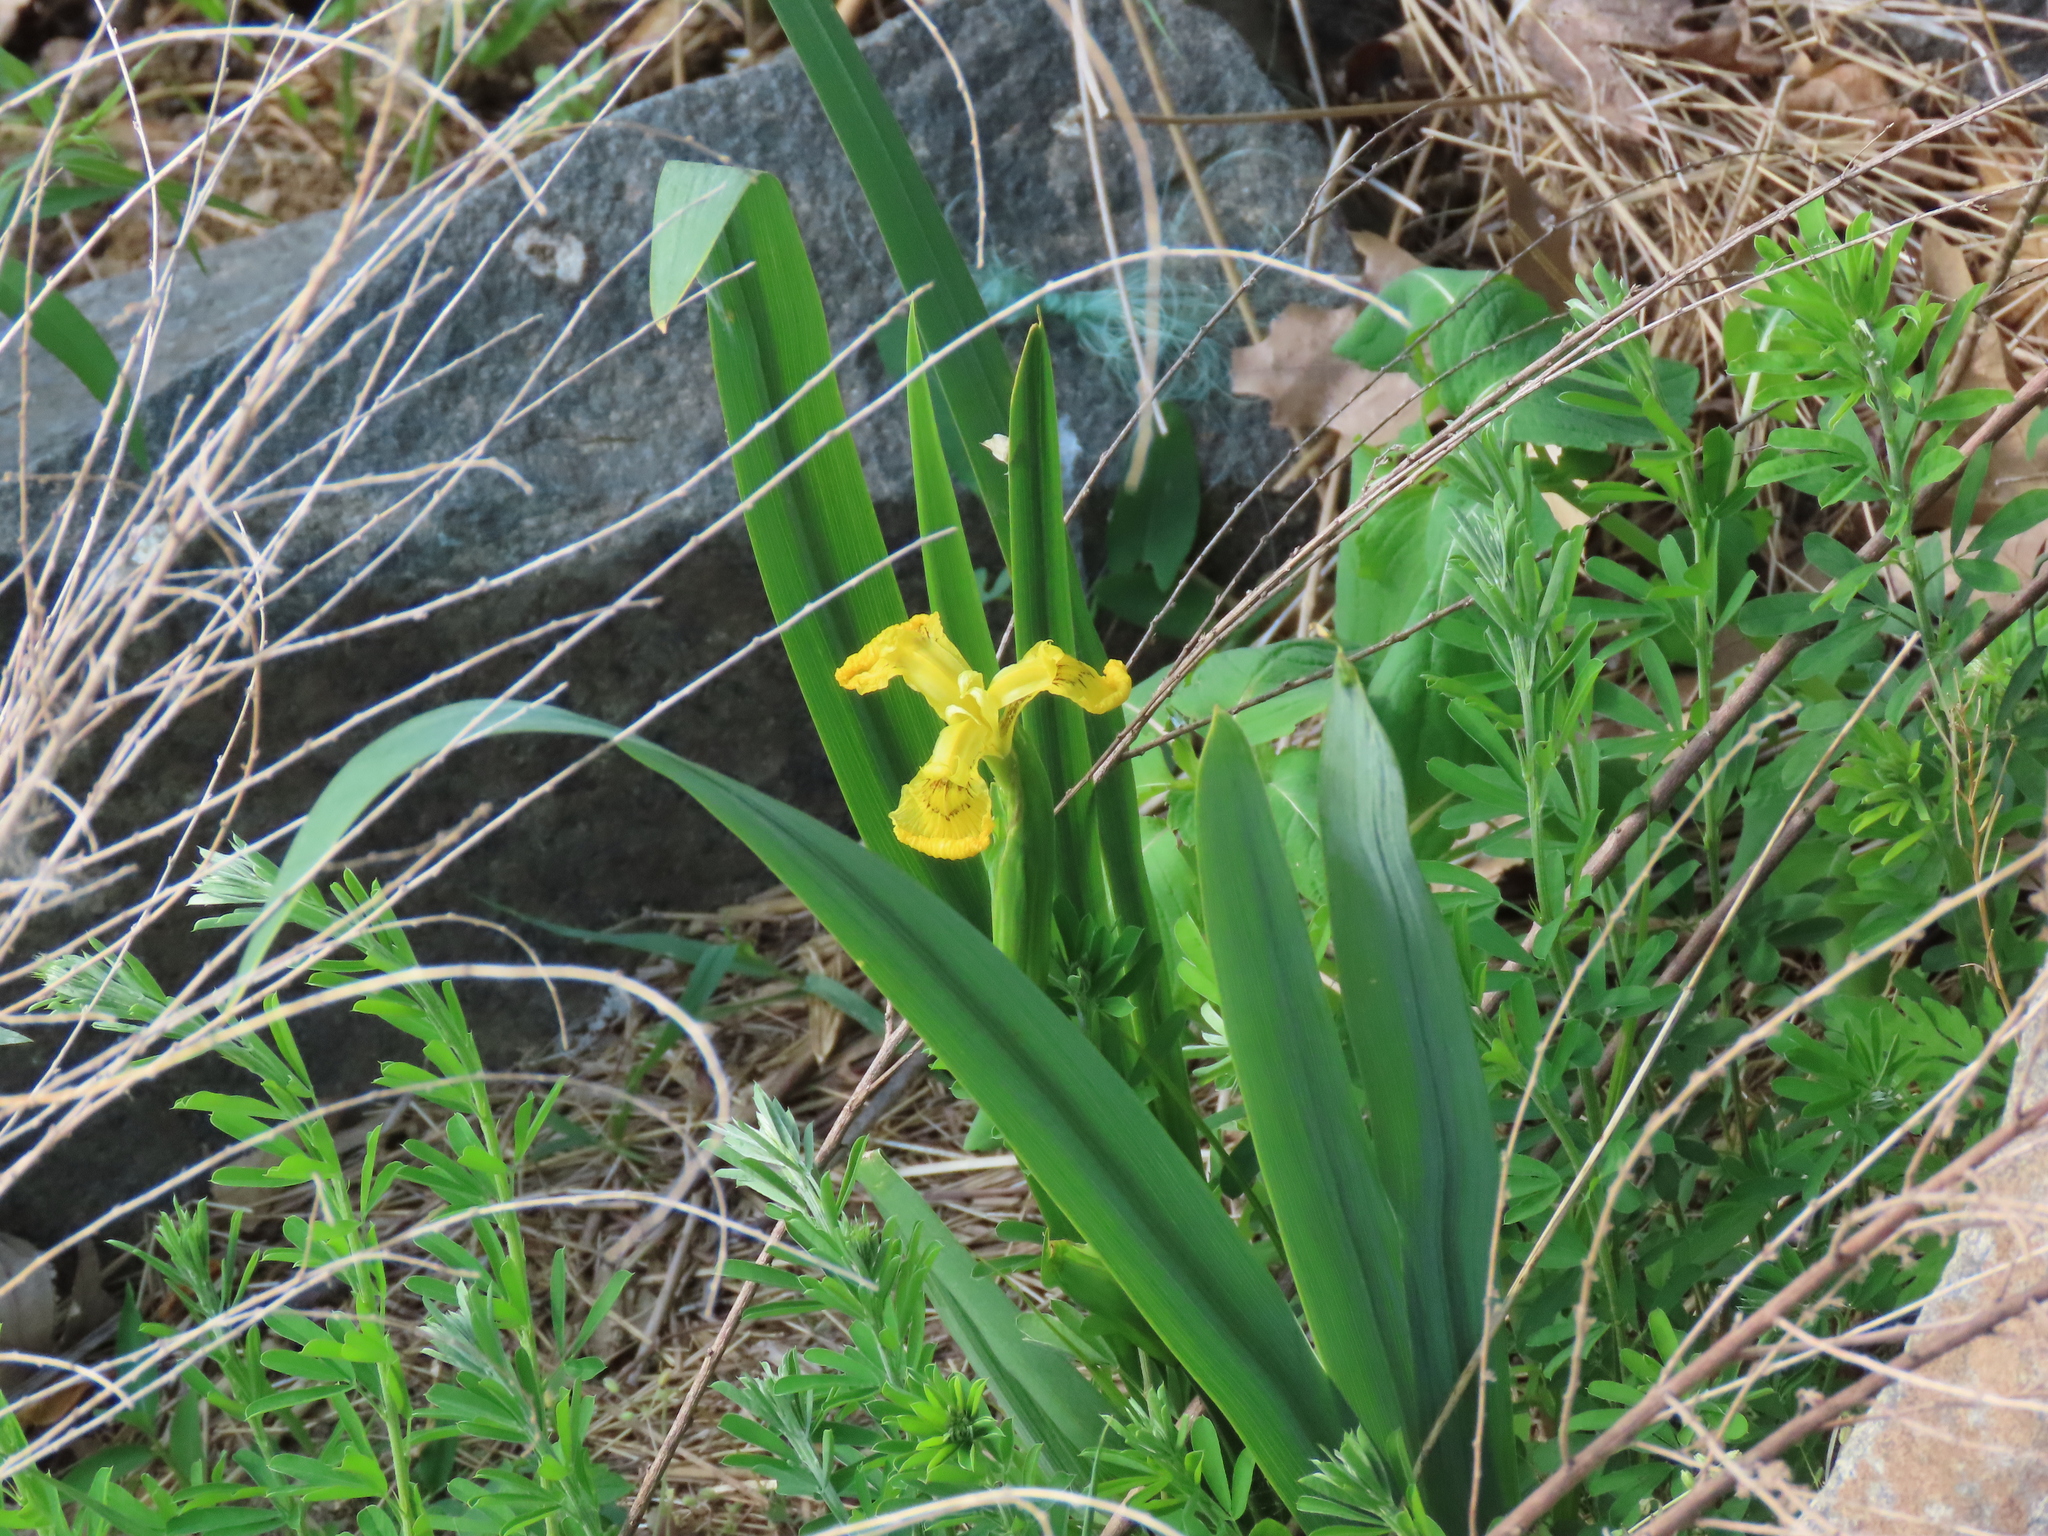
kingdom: Plantae
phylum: Tracheophyta
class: Liliopsida
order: Asparagales
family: Iridaceae
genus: Iris
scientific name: Iris pseudacorus
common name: Yellow flag
